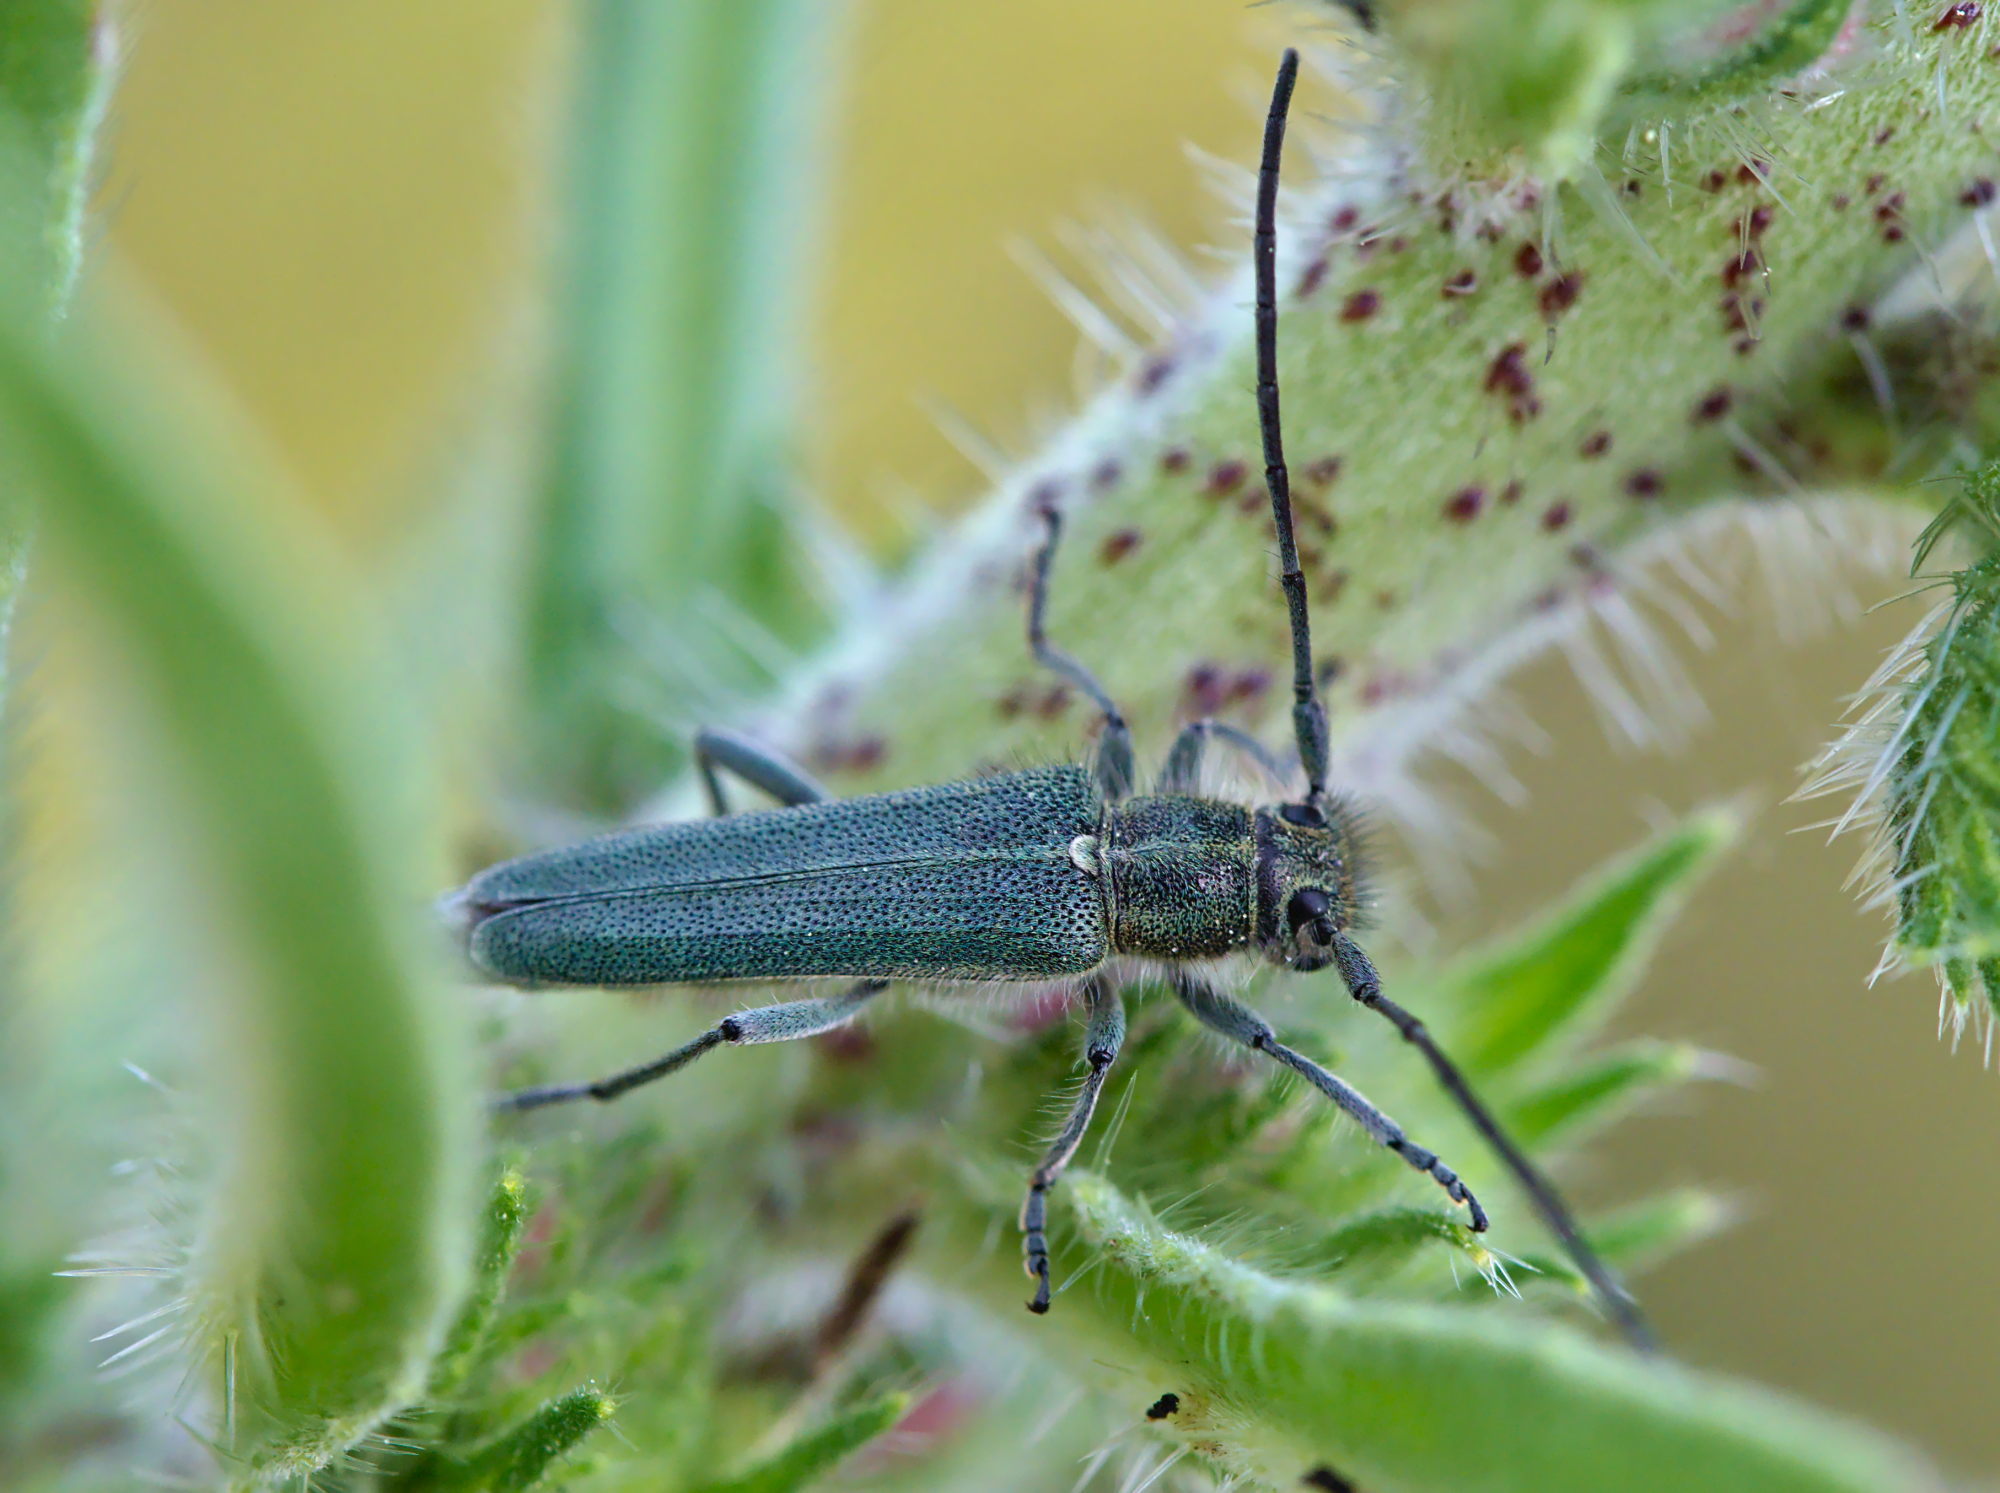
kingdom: Animalia
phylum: Arthropoda
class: Insecta
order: Coleoptera
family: Cerambycidae
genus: Phytoecia
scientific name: Phytoecia coerulescens
